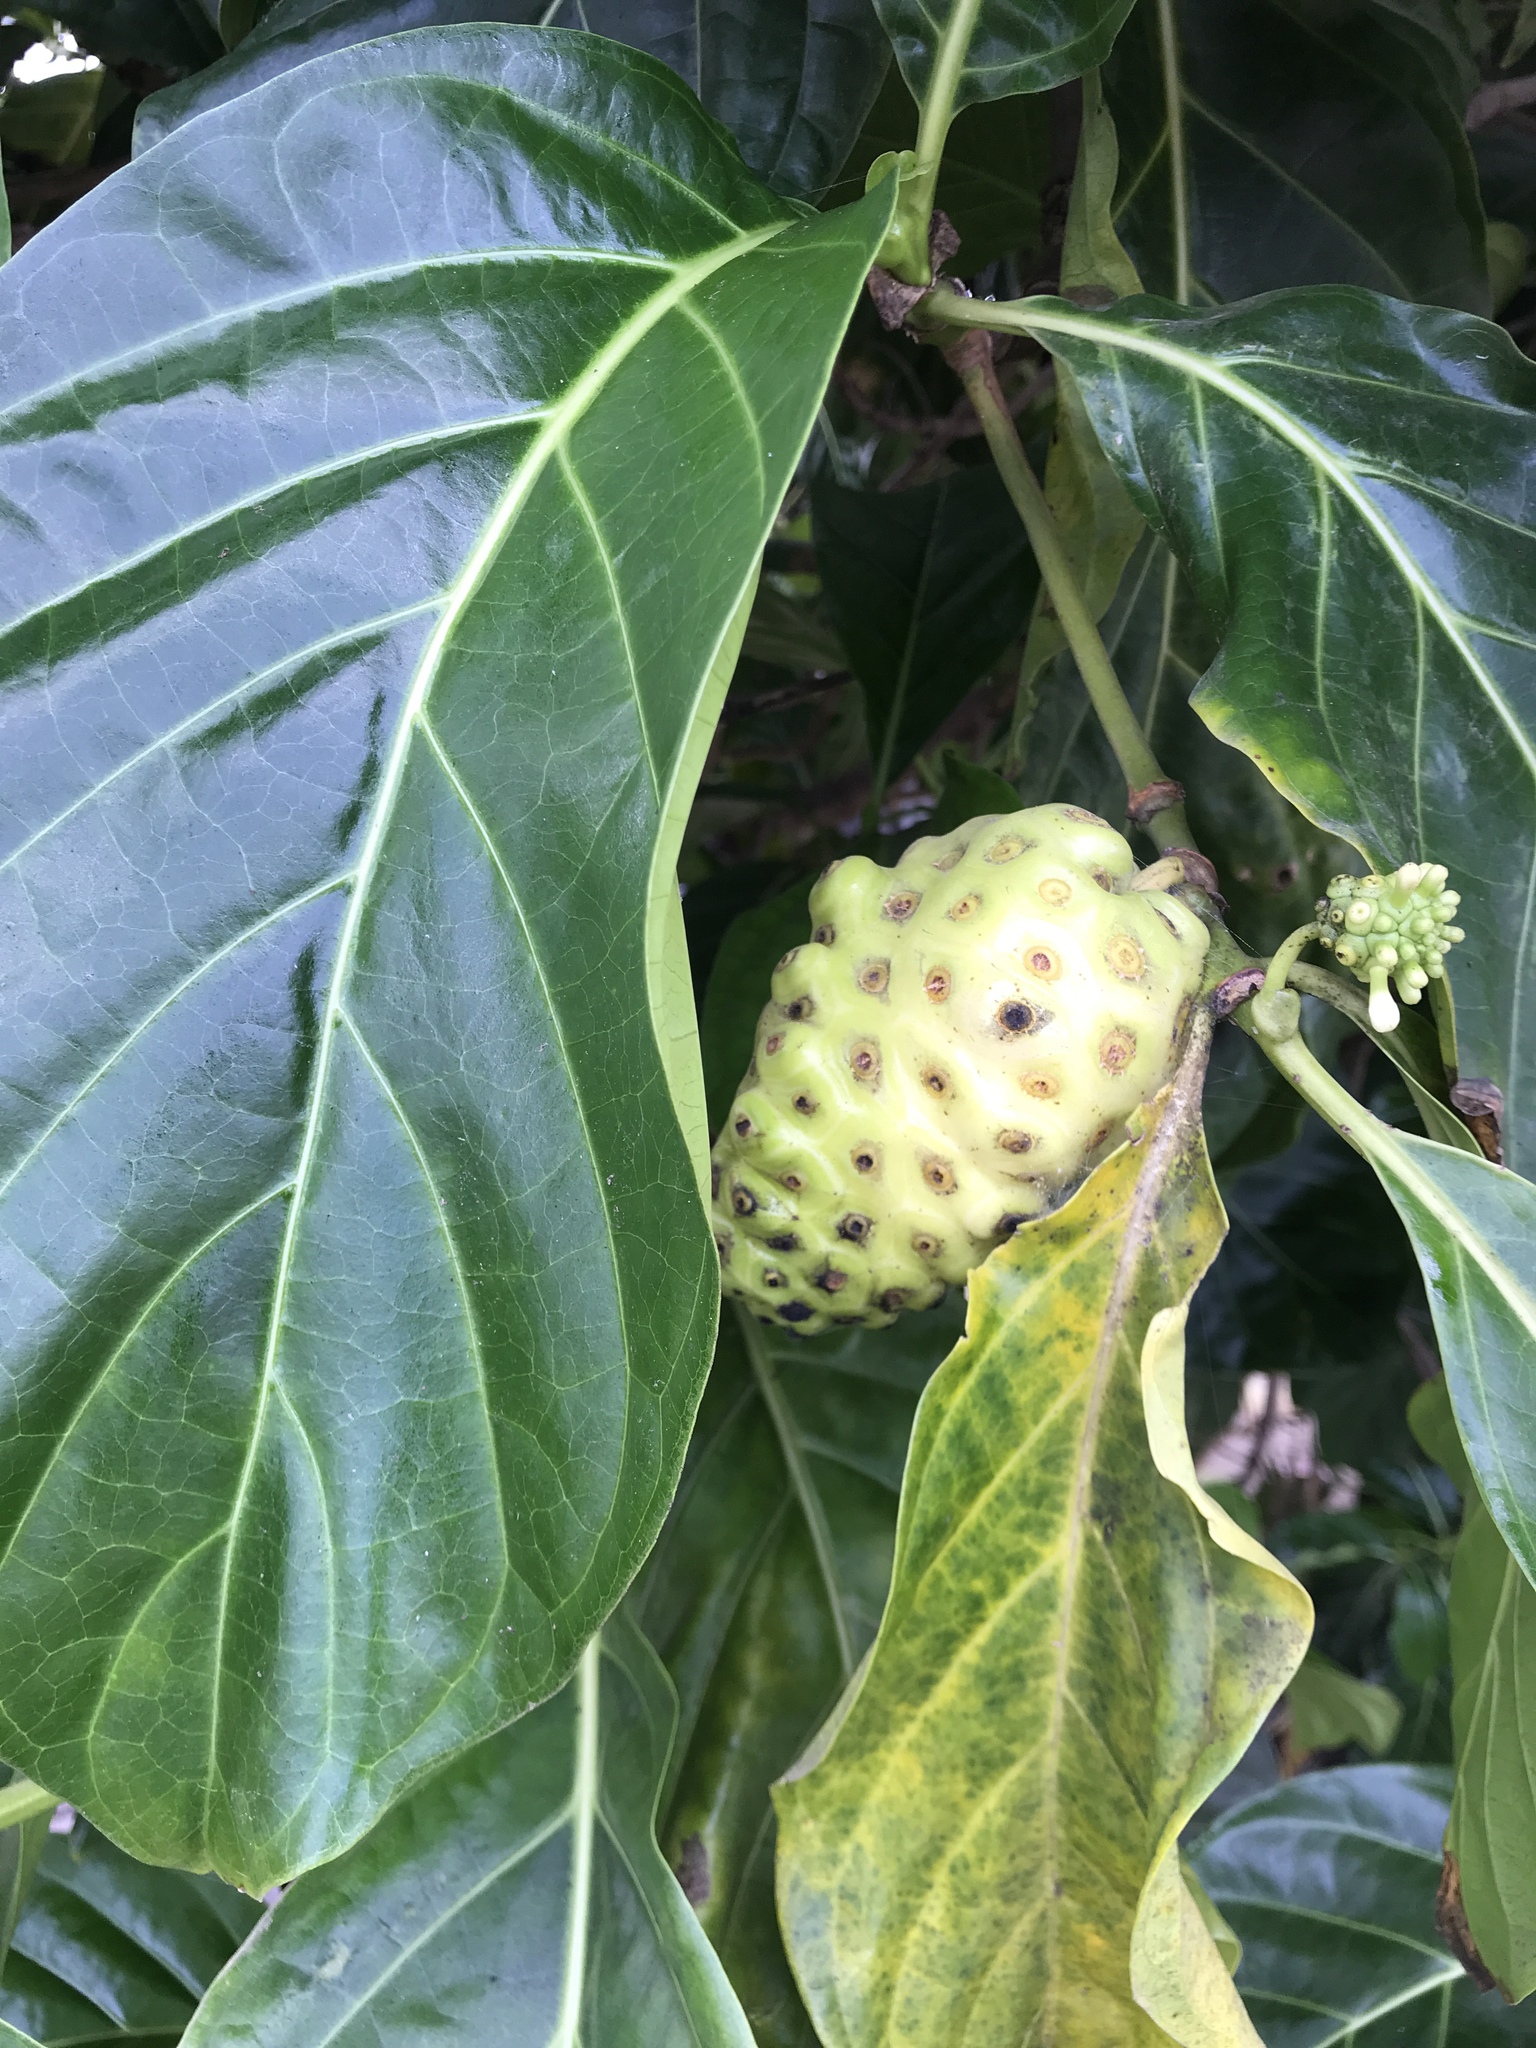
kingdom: Plantae
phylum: Tracheophyta
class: Magnoliopsida
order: Gentianales
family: Rubiaceae
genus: Morinda
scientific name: Morinda citrifolia
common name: Indian-mulberry
